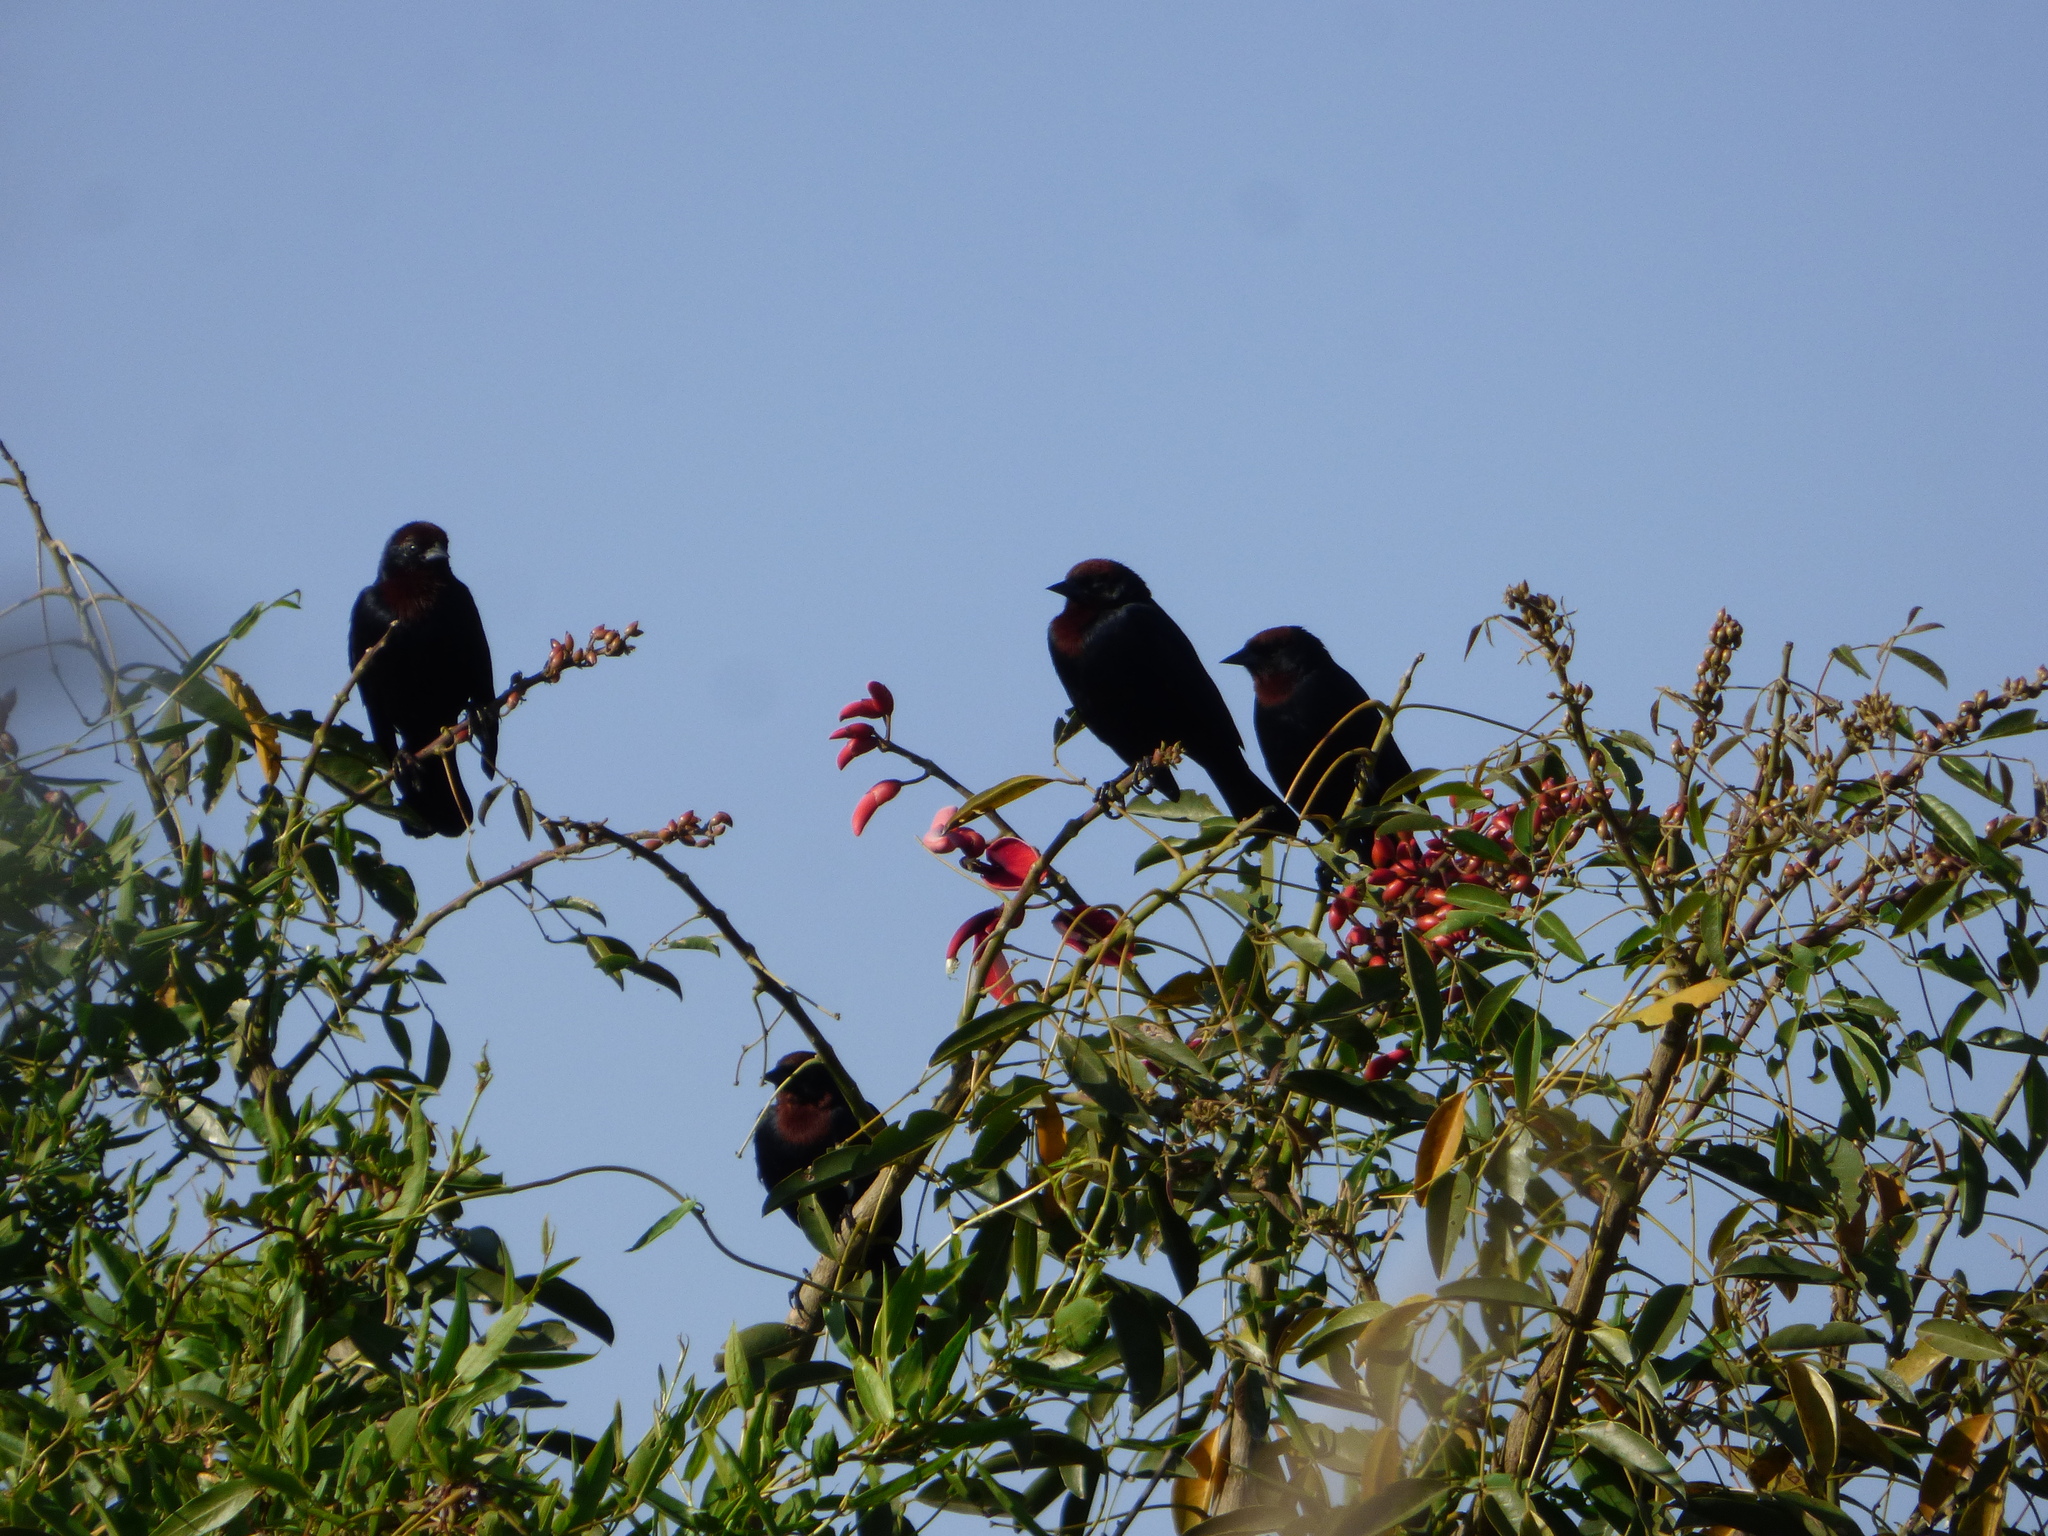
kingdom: Animalia
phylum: Chordata
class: Aves
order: Passeriformes
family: Icteridae
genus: Chrysomus
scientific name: Chrysomus ruficapillus
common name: Chestnut-capped blackbird
